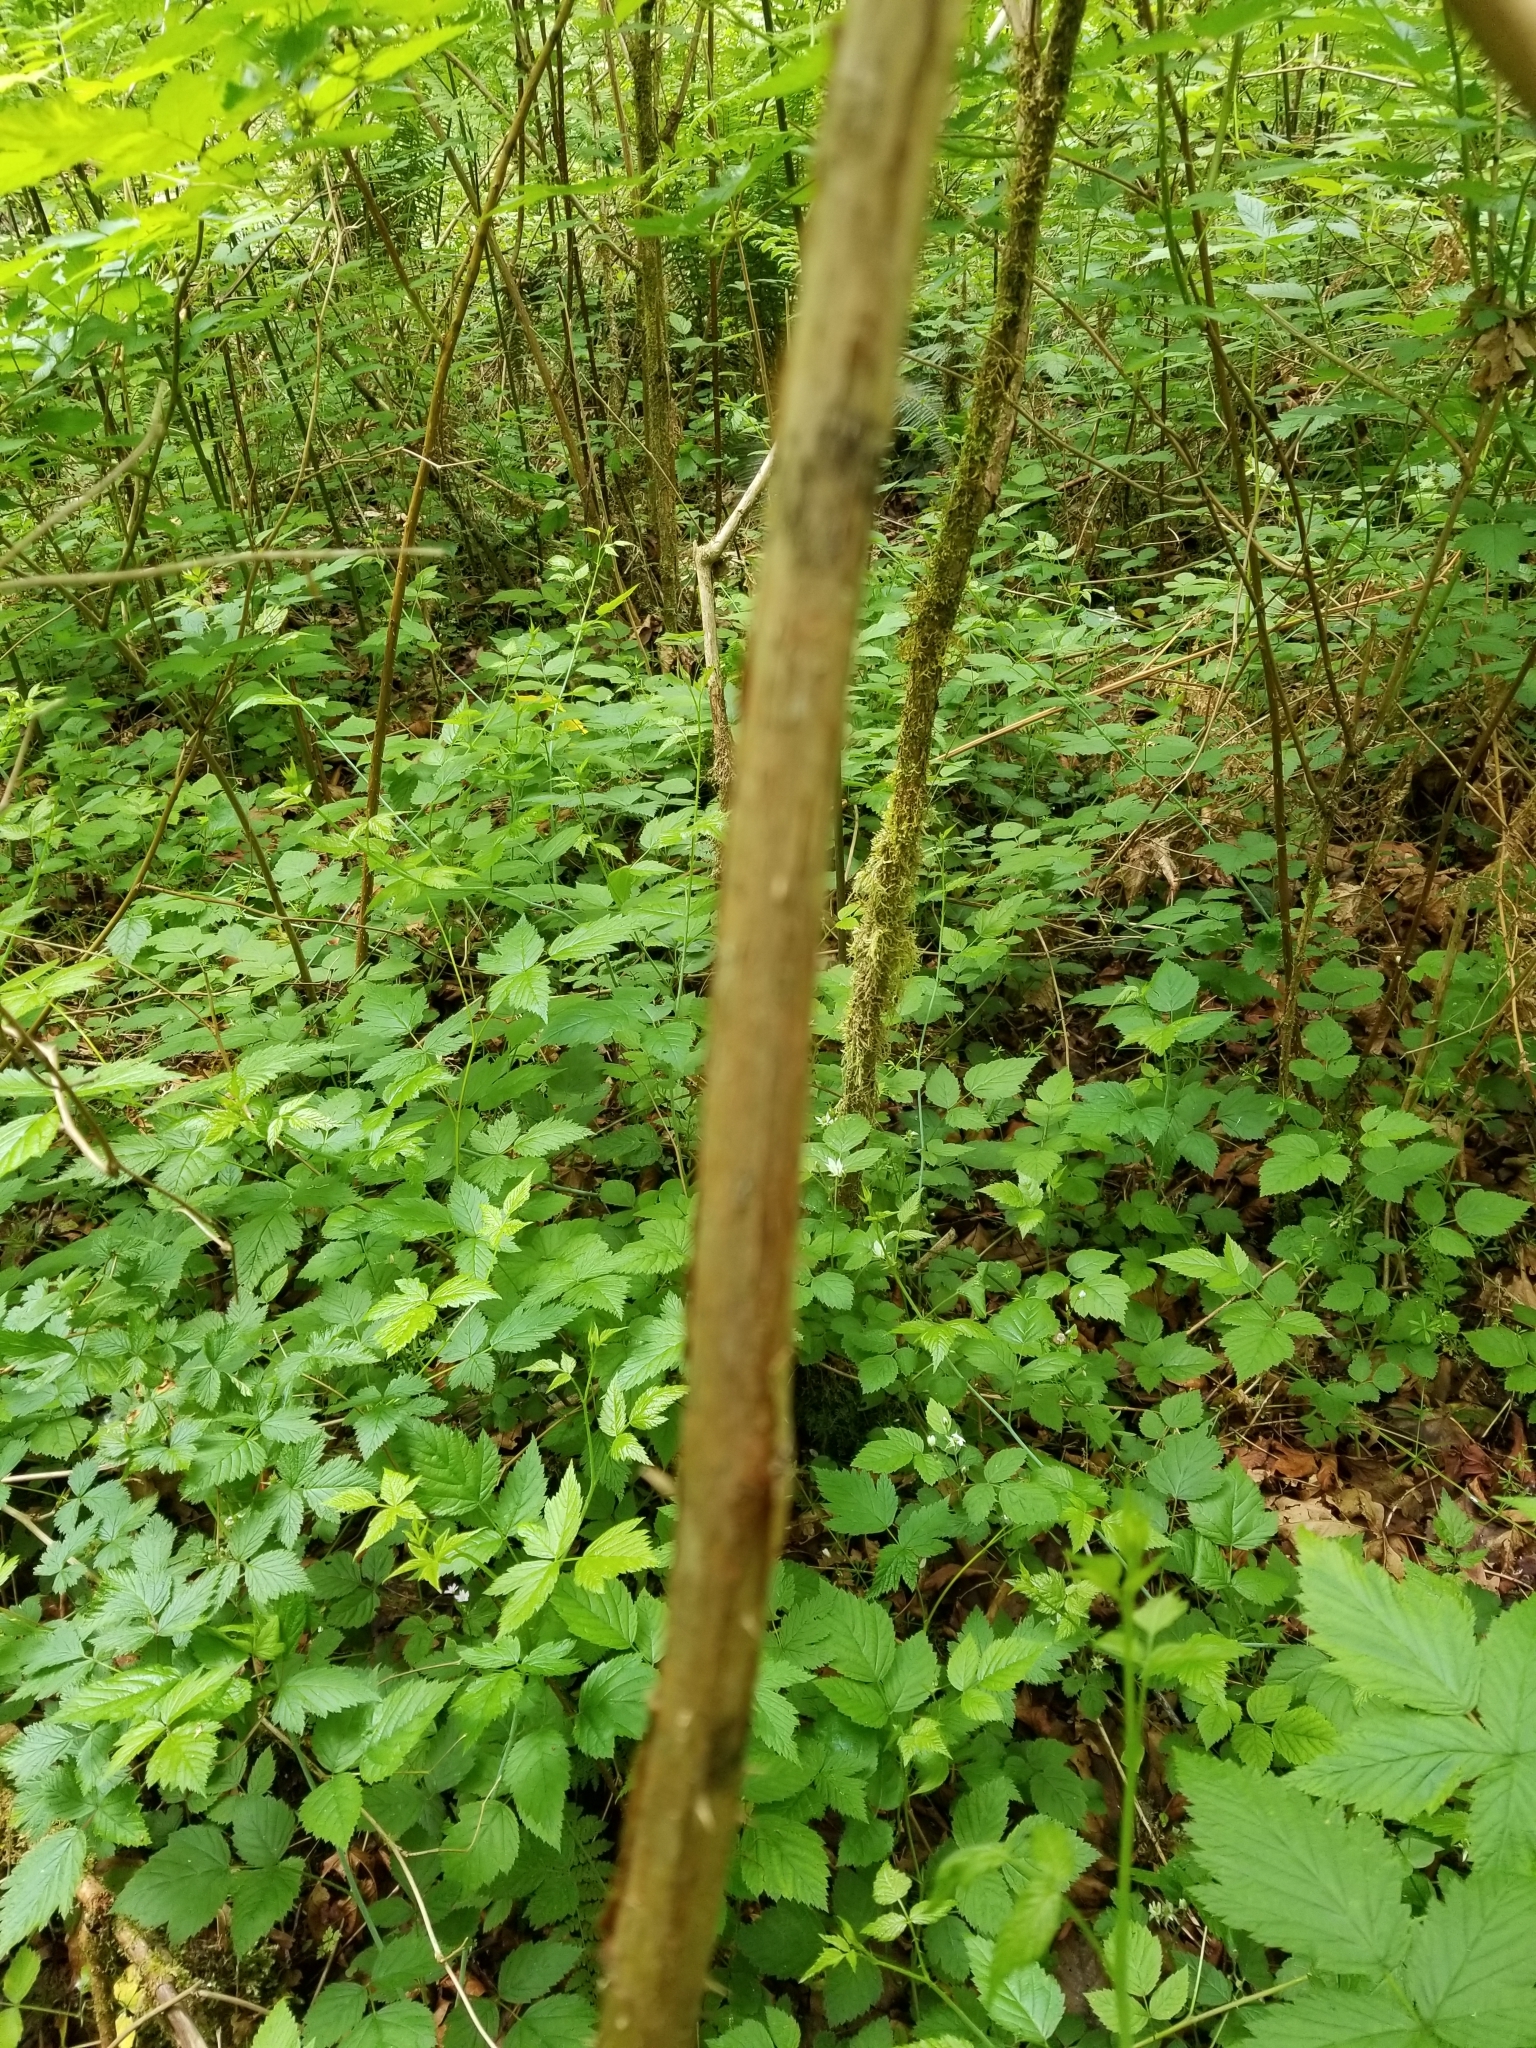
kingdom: Plantae
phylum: Tracheophyta
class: Magnoliopsida
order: Rosales
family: Rosaceae
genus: Rubus
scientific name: Rubus spectabilis
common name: Salmonberry
